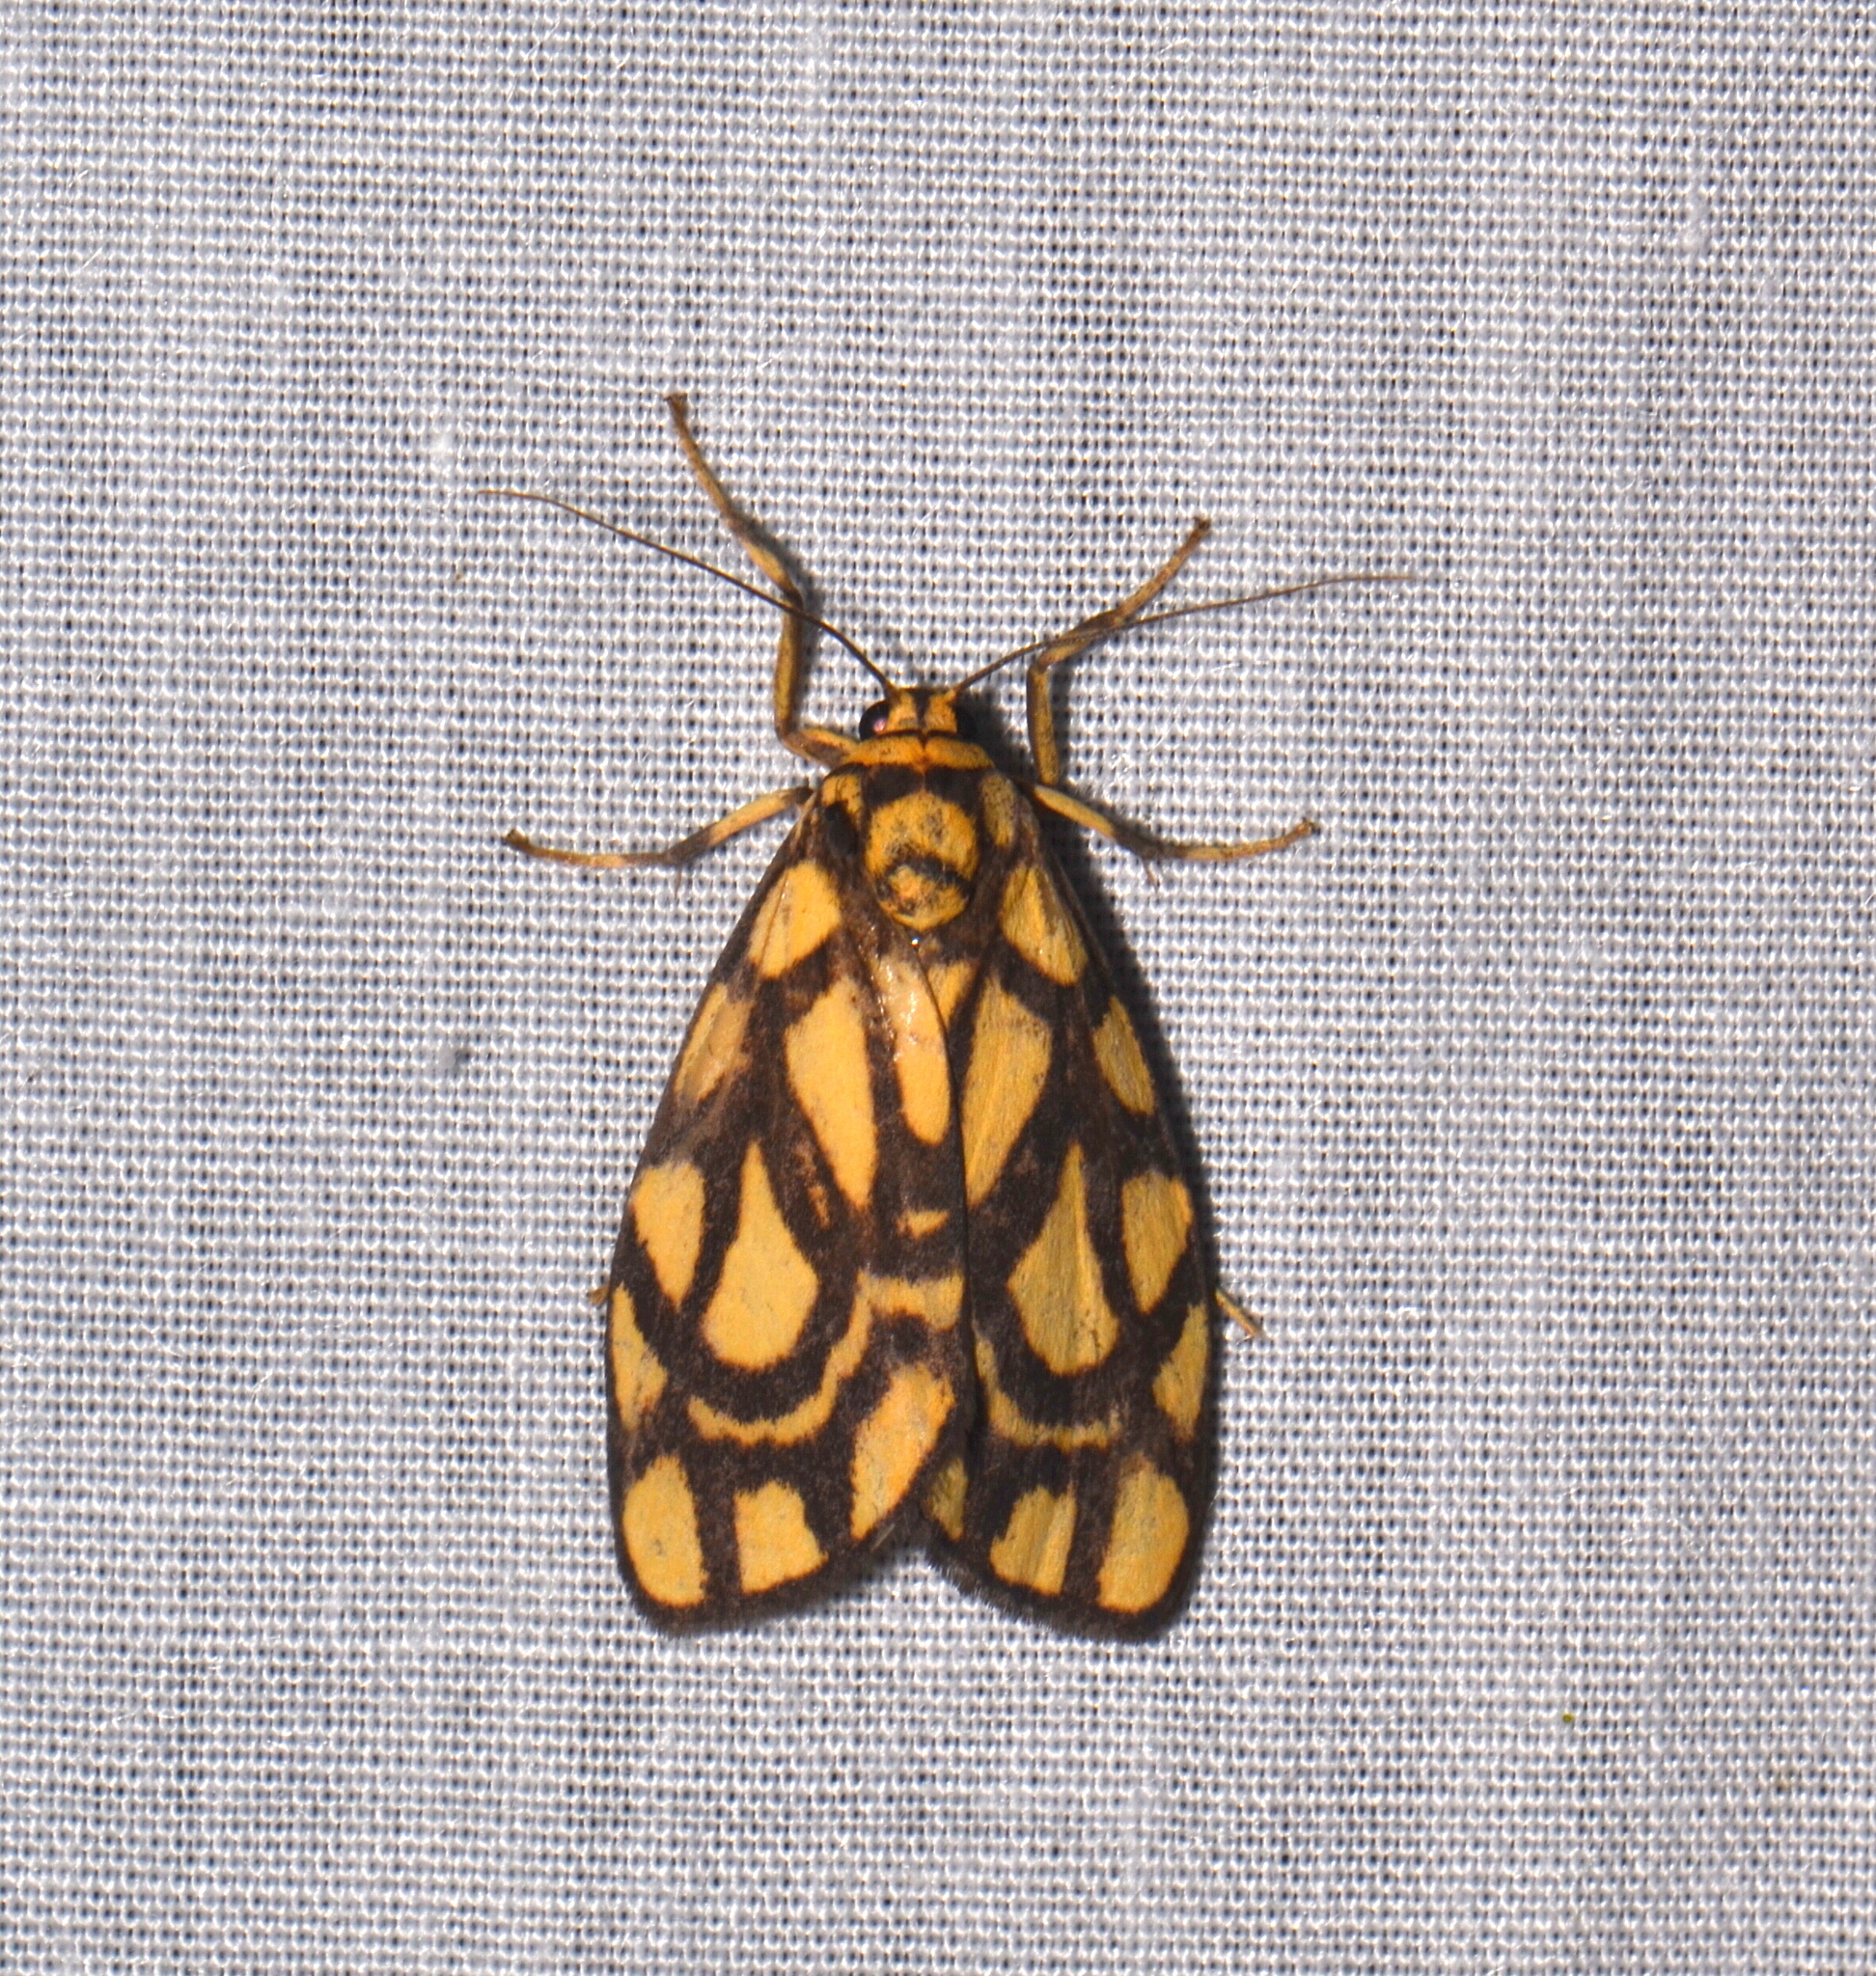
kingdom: Animalia
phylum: Arthropoda
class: Insecta
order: Lepidoptera
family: Erebidae
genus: Cyme
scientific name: Cyme euprepioides
